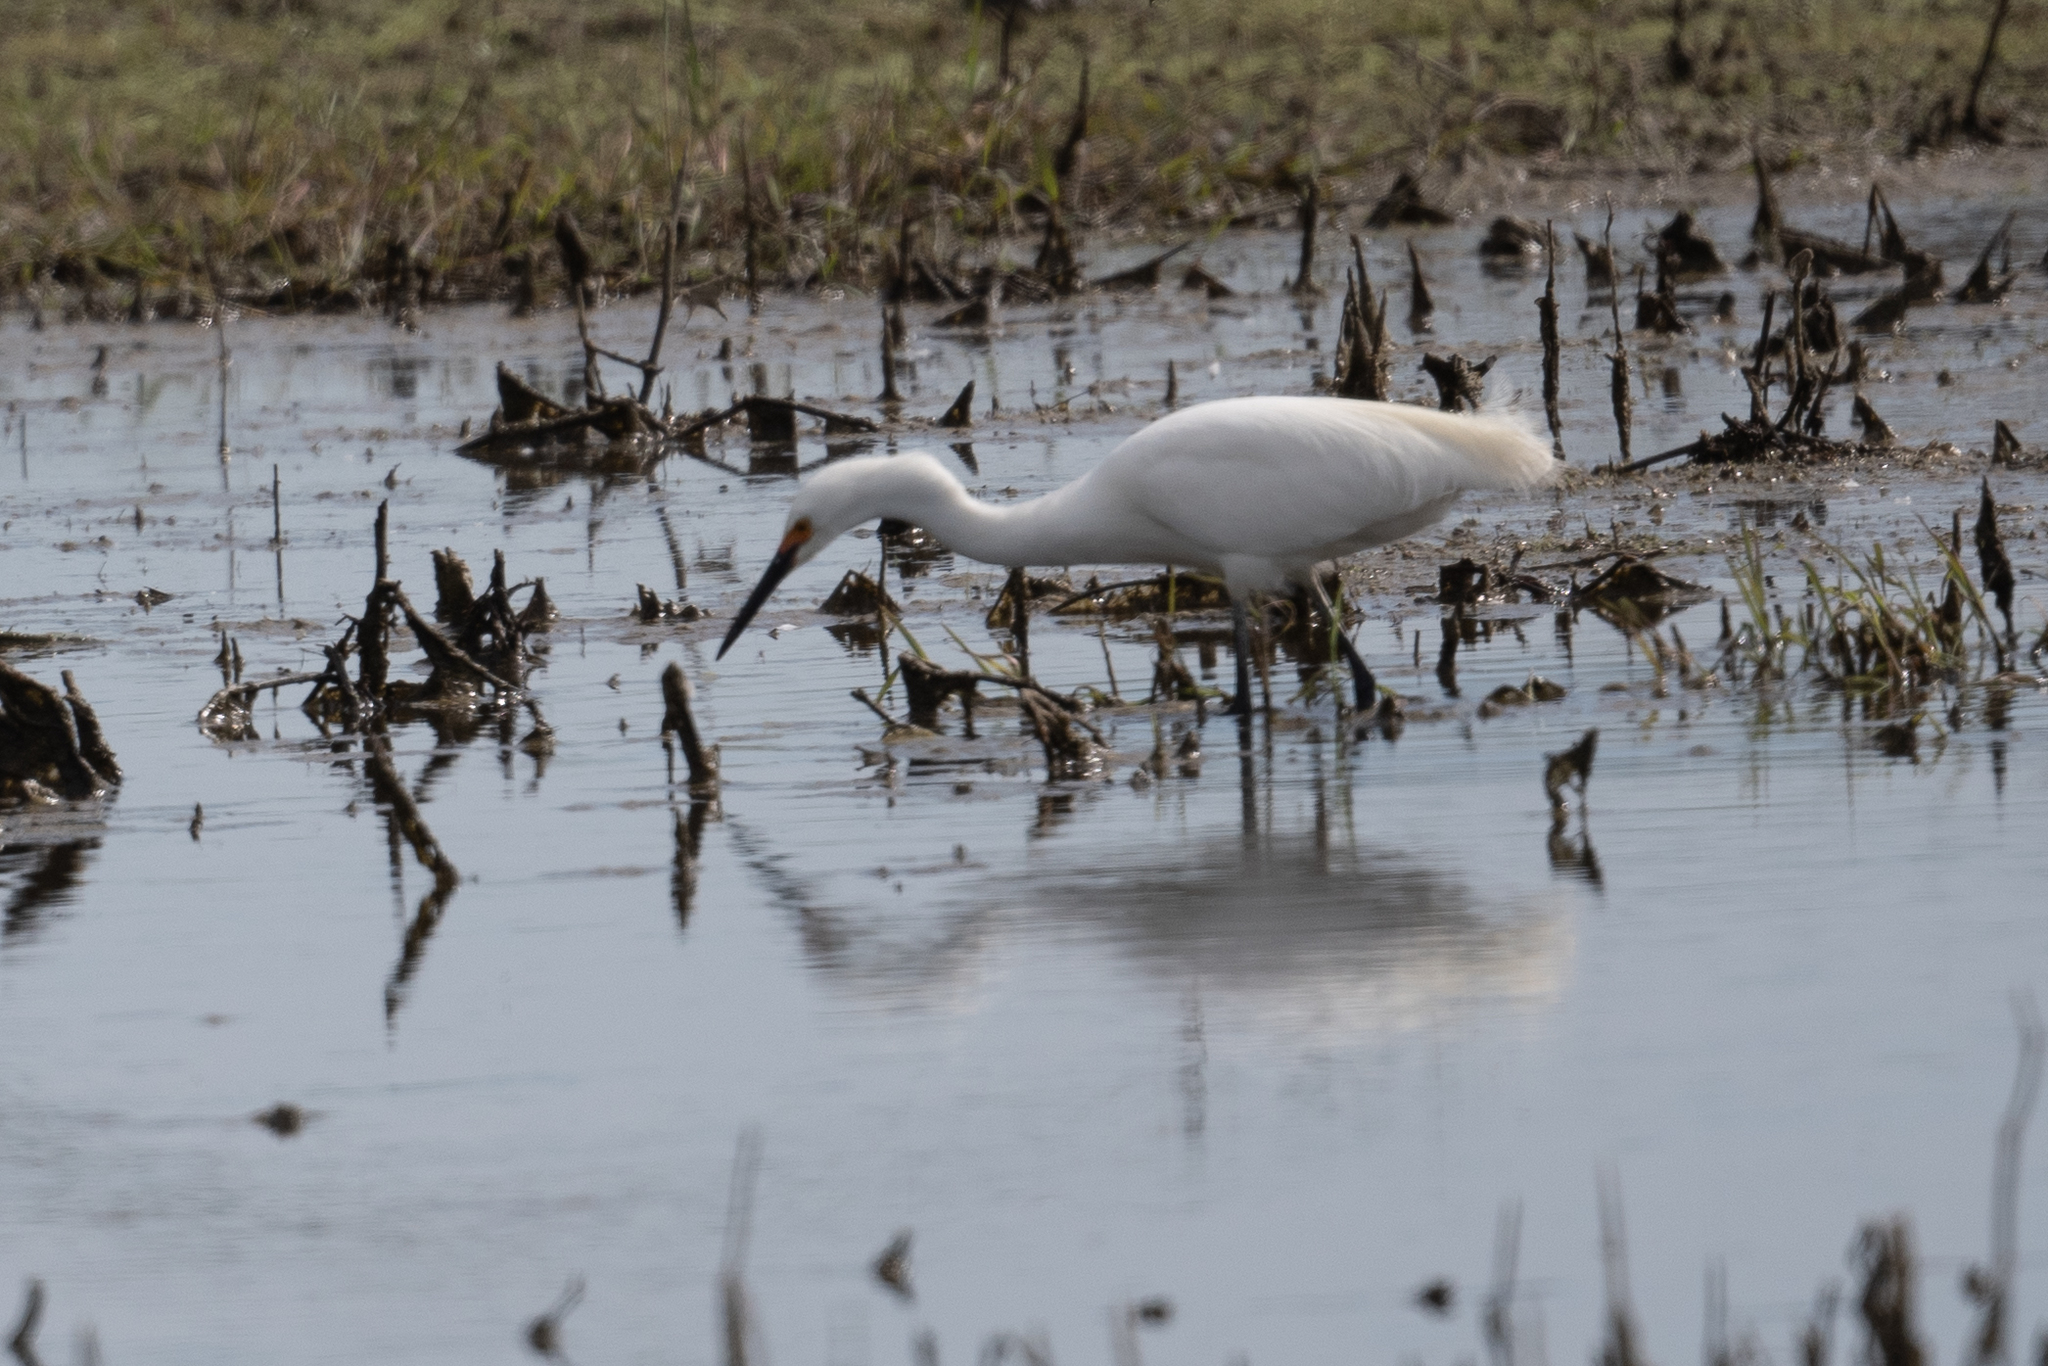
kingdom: Animalia
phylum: Chordata
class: Aves
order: Pelecaniformes
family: Ardeidae
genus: Egretta
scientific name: Egretta thula
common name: Snowy egret
